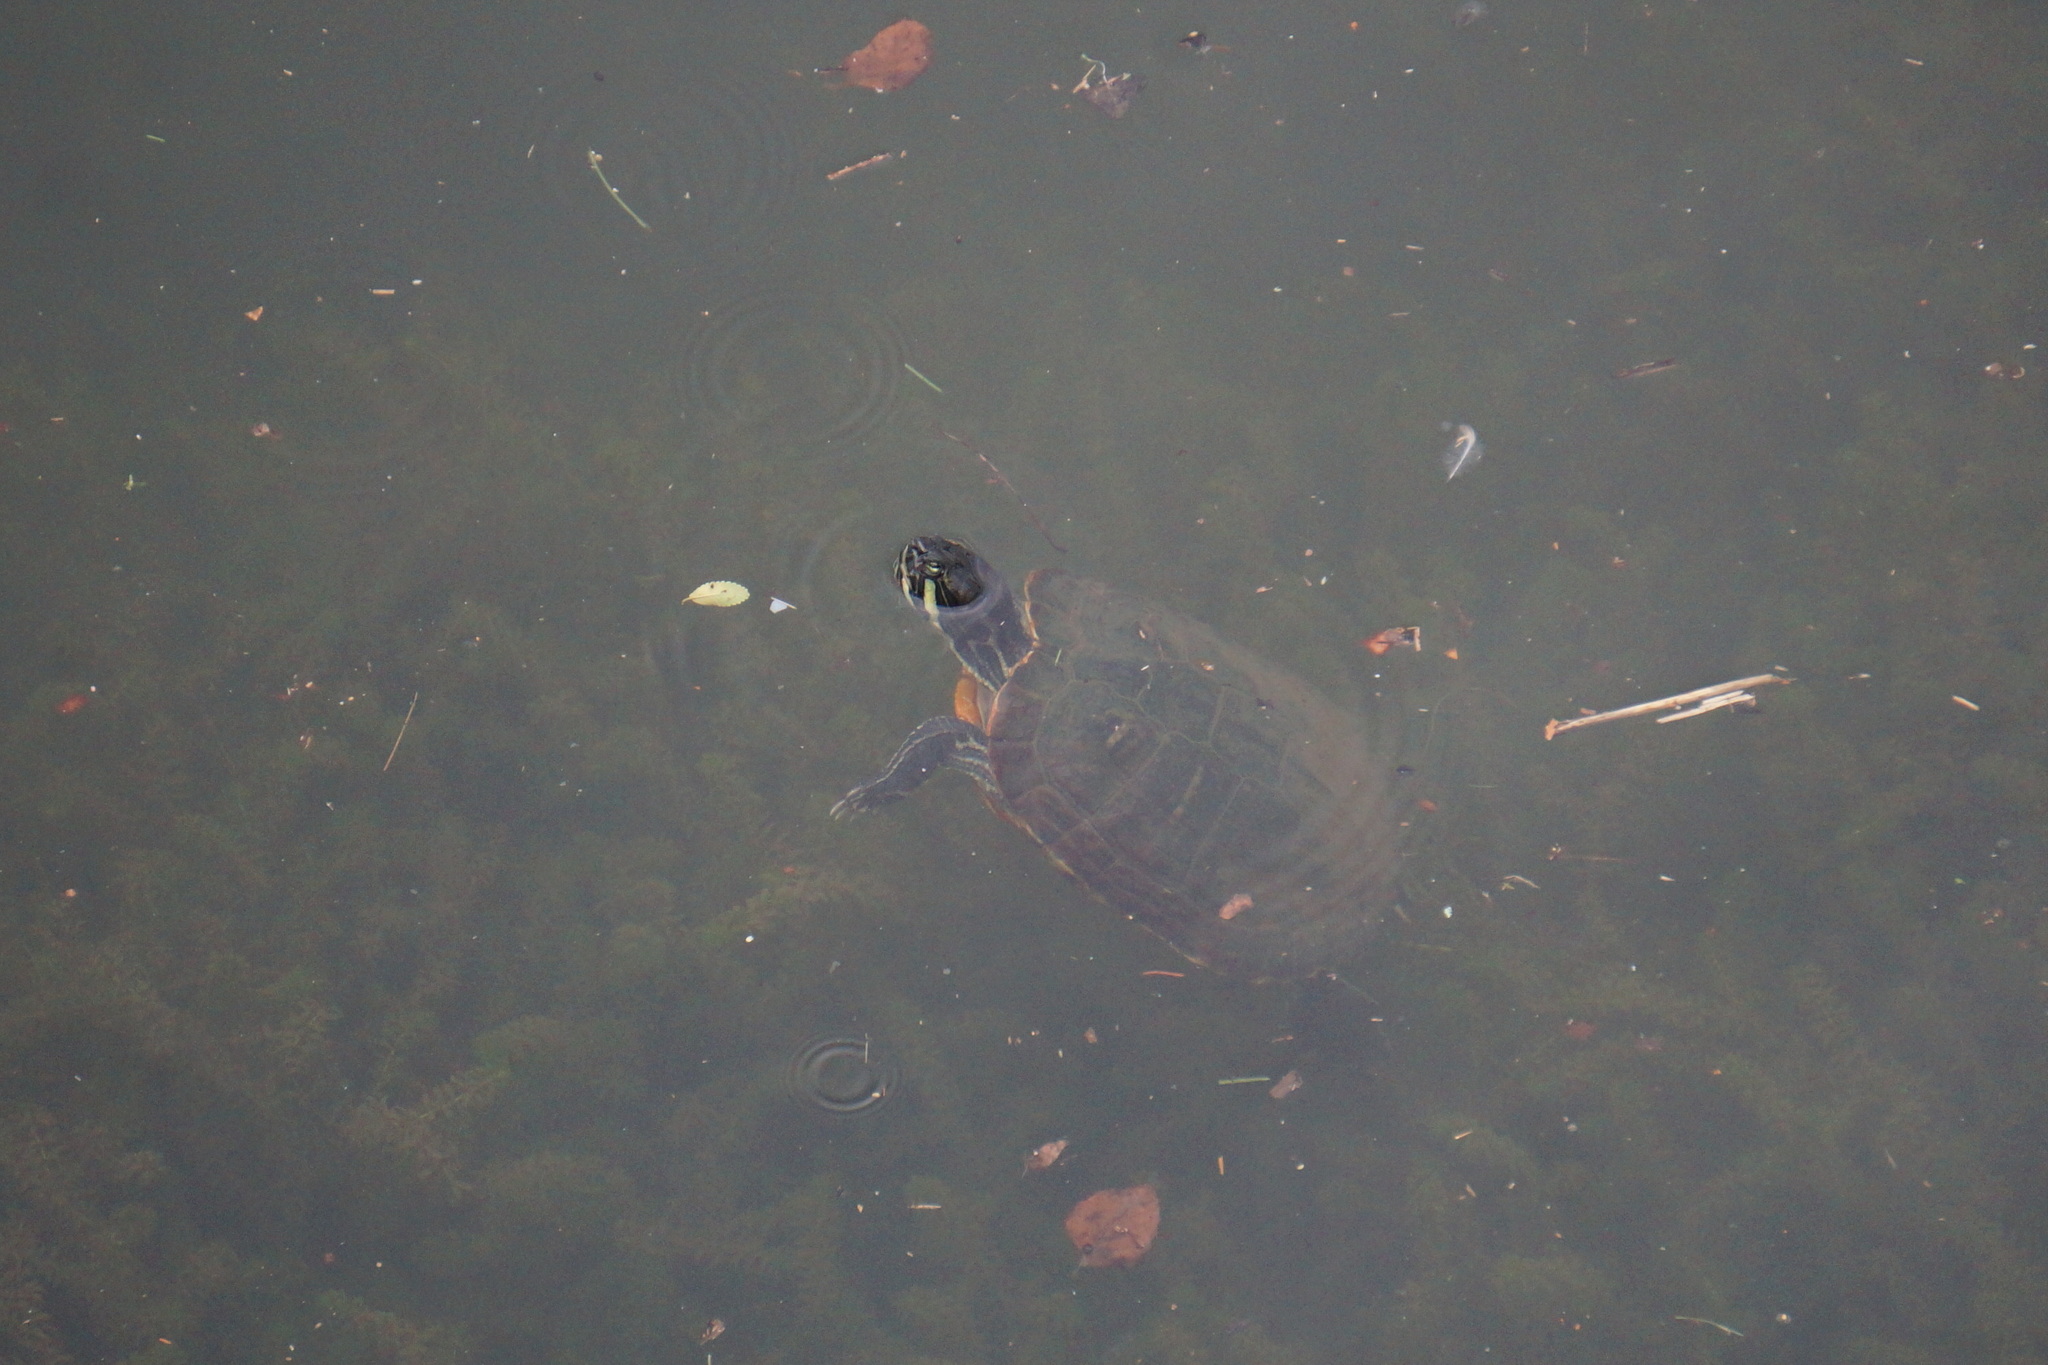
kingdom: Animalia
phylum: Chordata
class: Testudines
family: Emydidae
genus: Trachemys
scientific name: Trachemys scripta
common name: Slider
